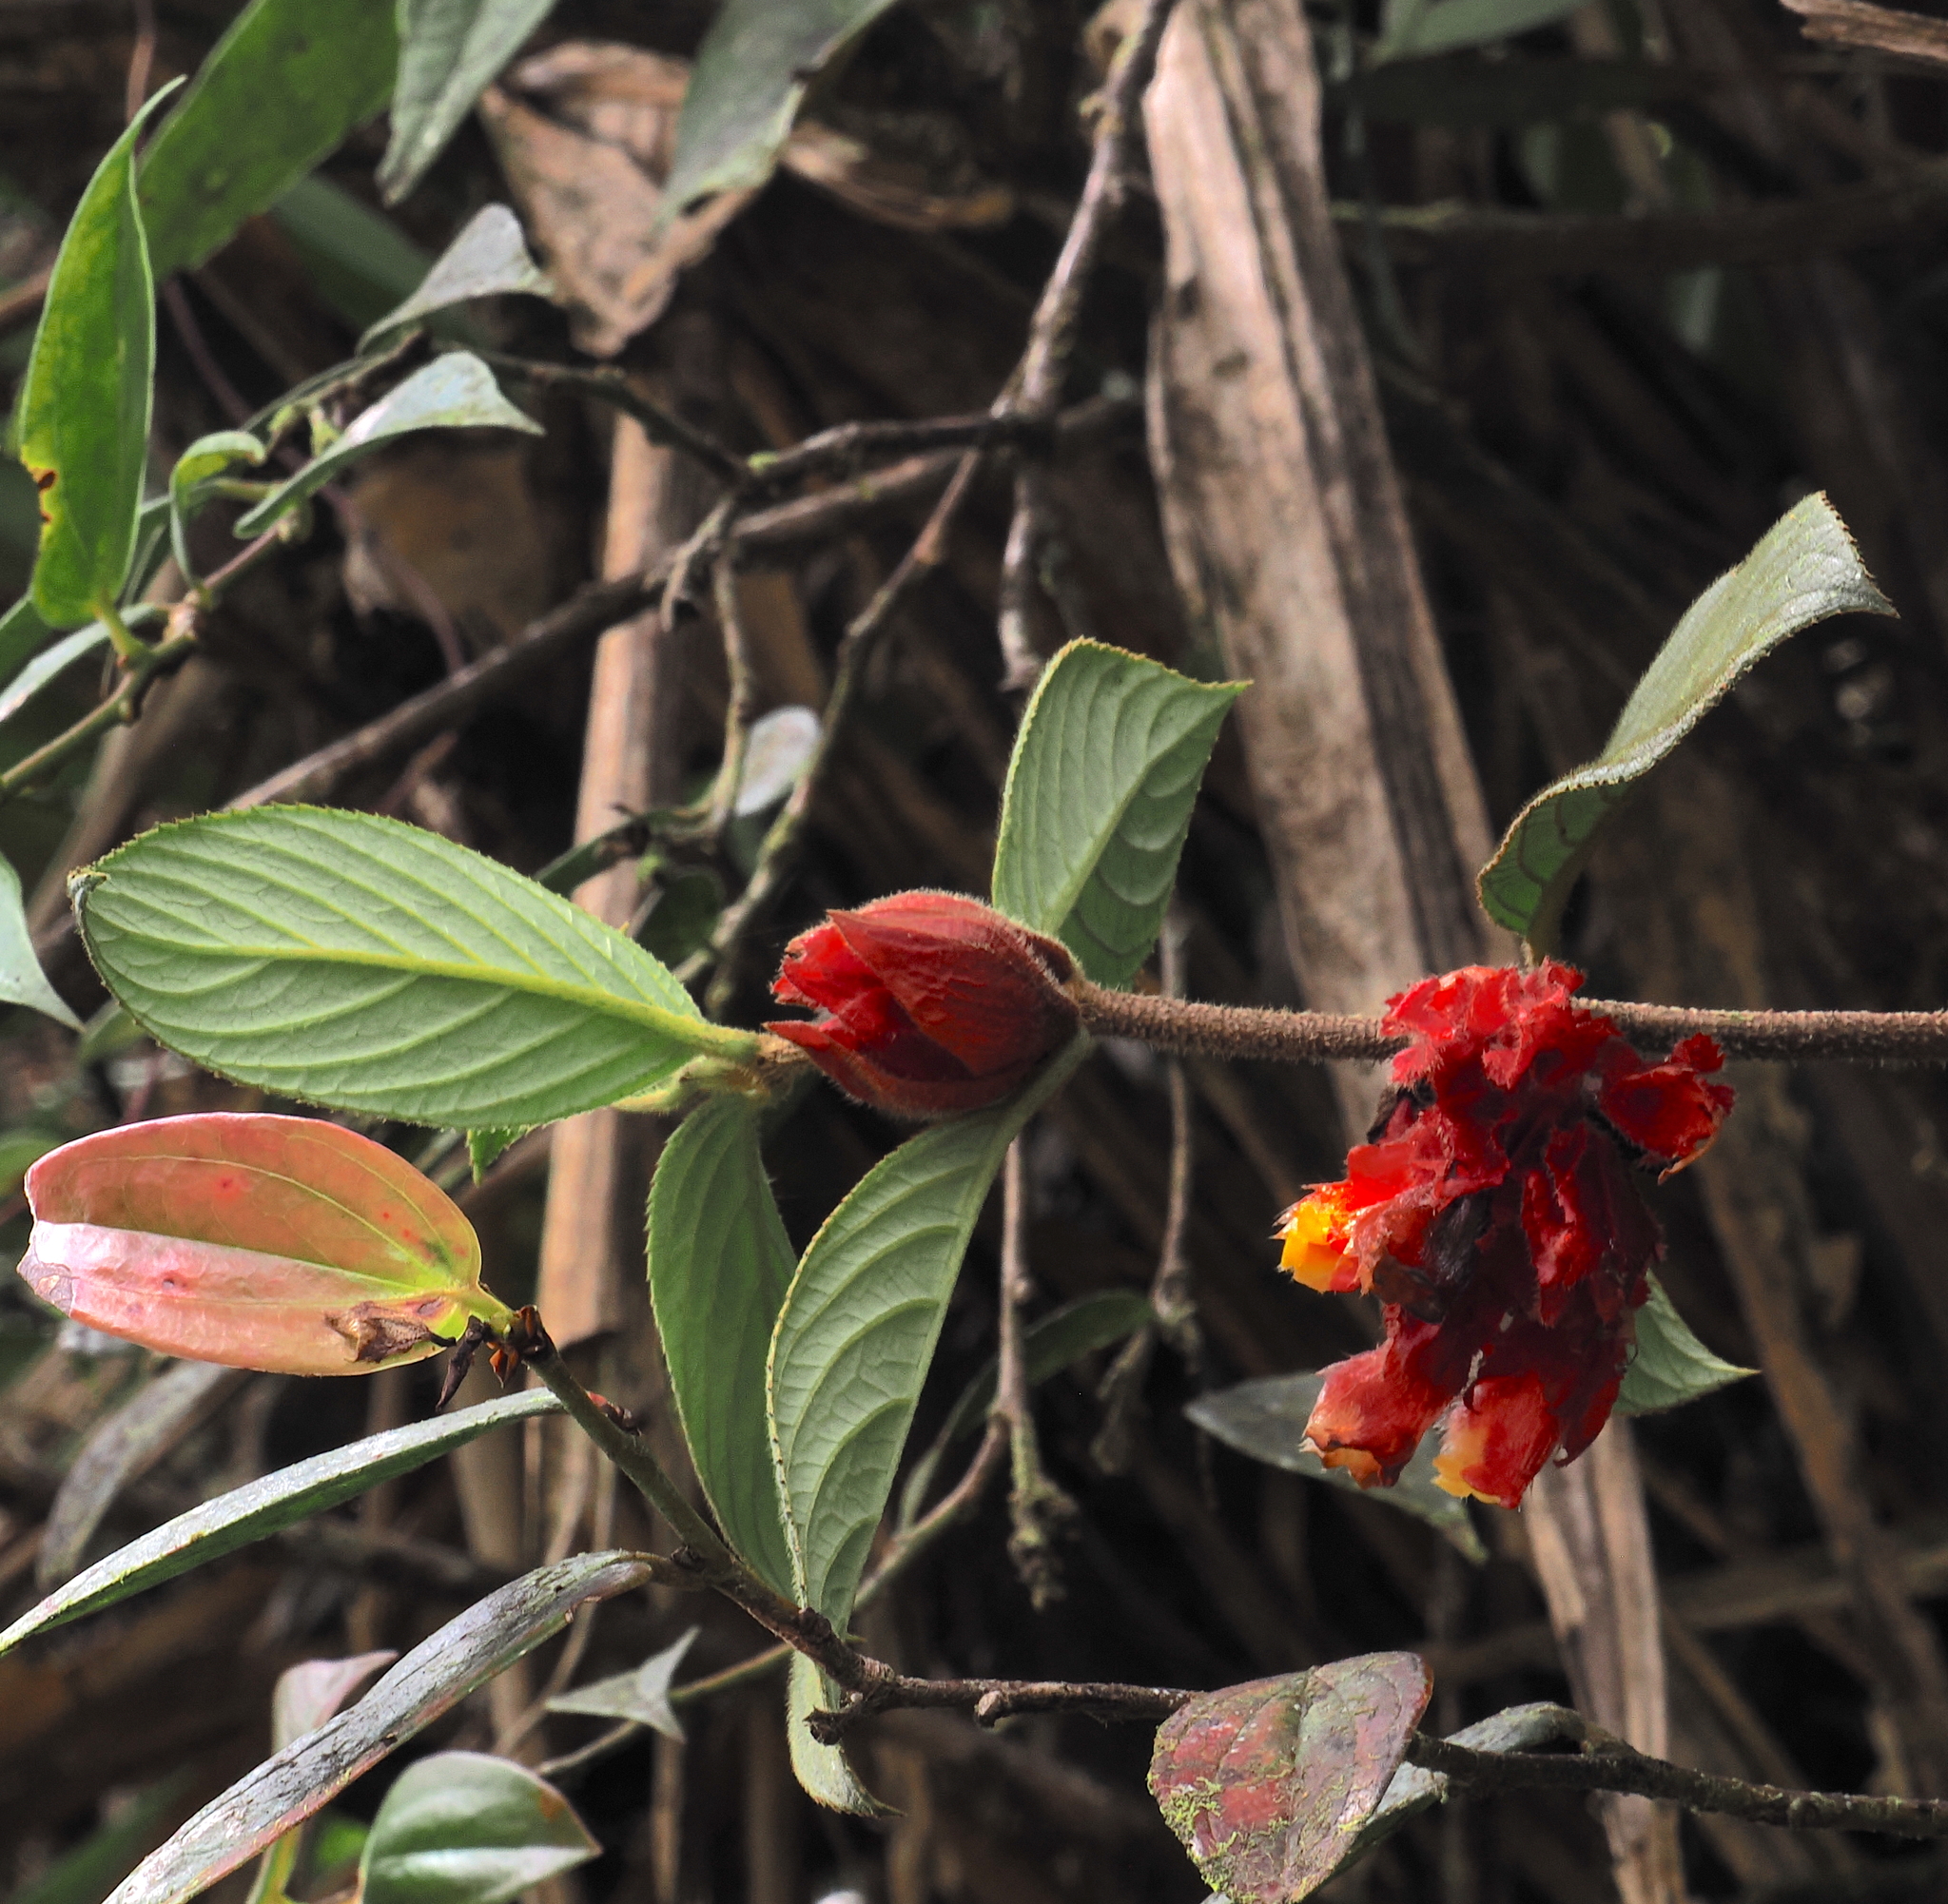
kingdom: Plantae
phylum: Tracheophyta
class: Magnoliopsida
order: Lamiales
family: Gesneriaceae
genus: Glossoloma
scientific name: Glossoloma ichthyoderma
